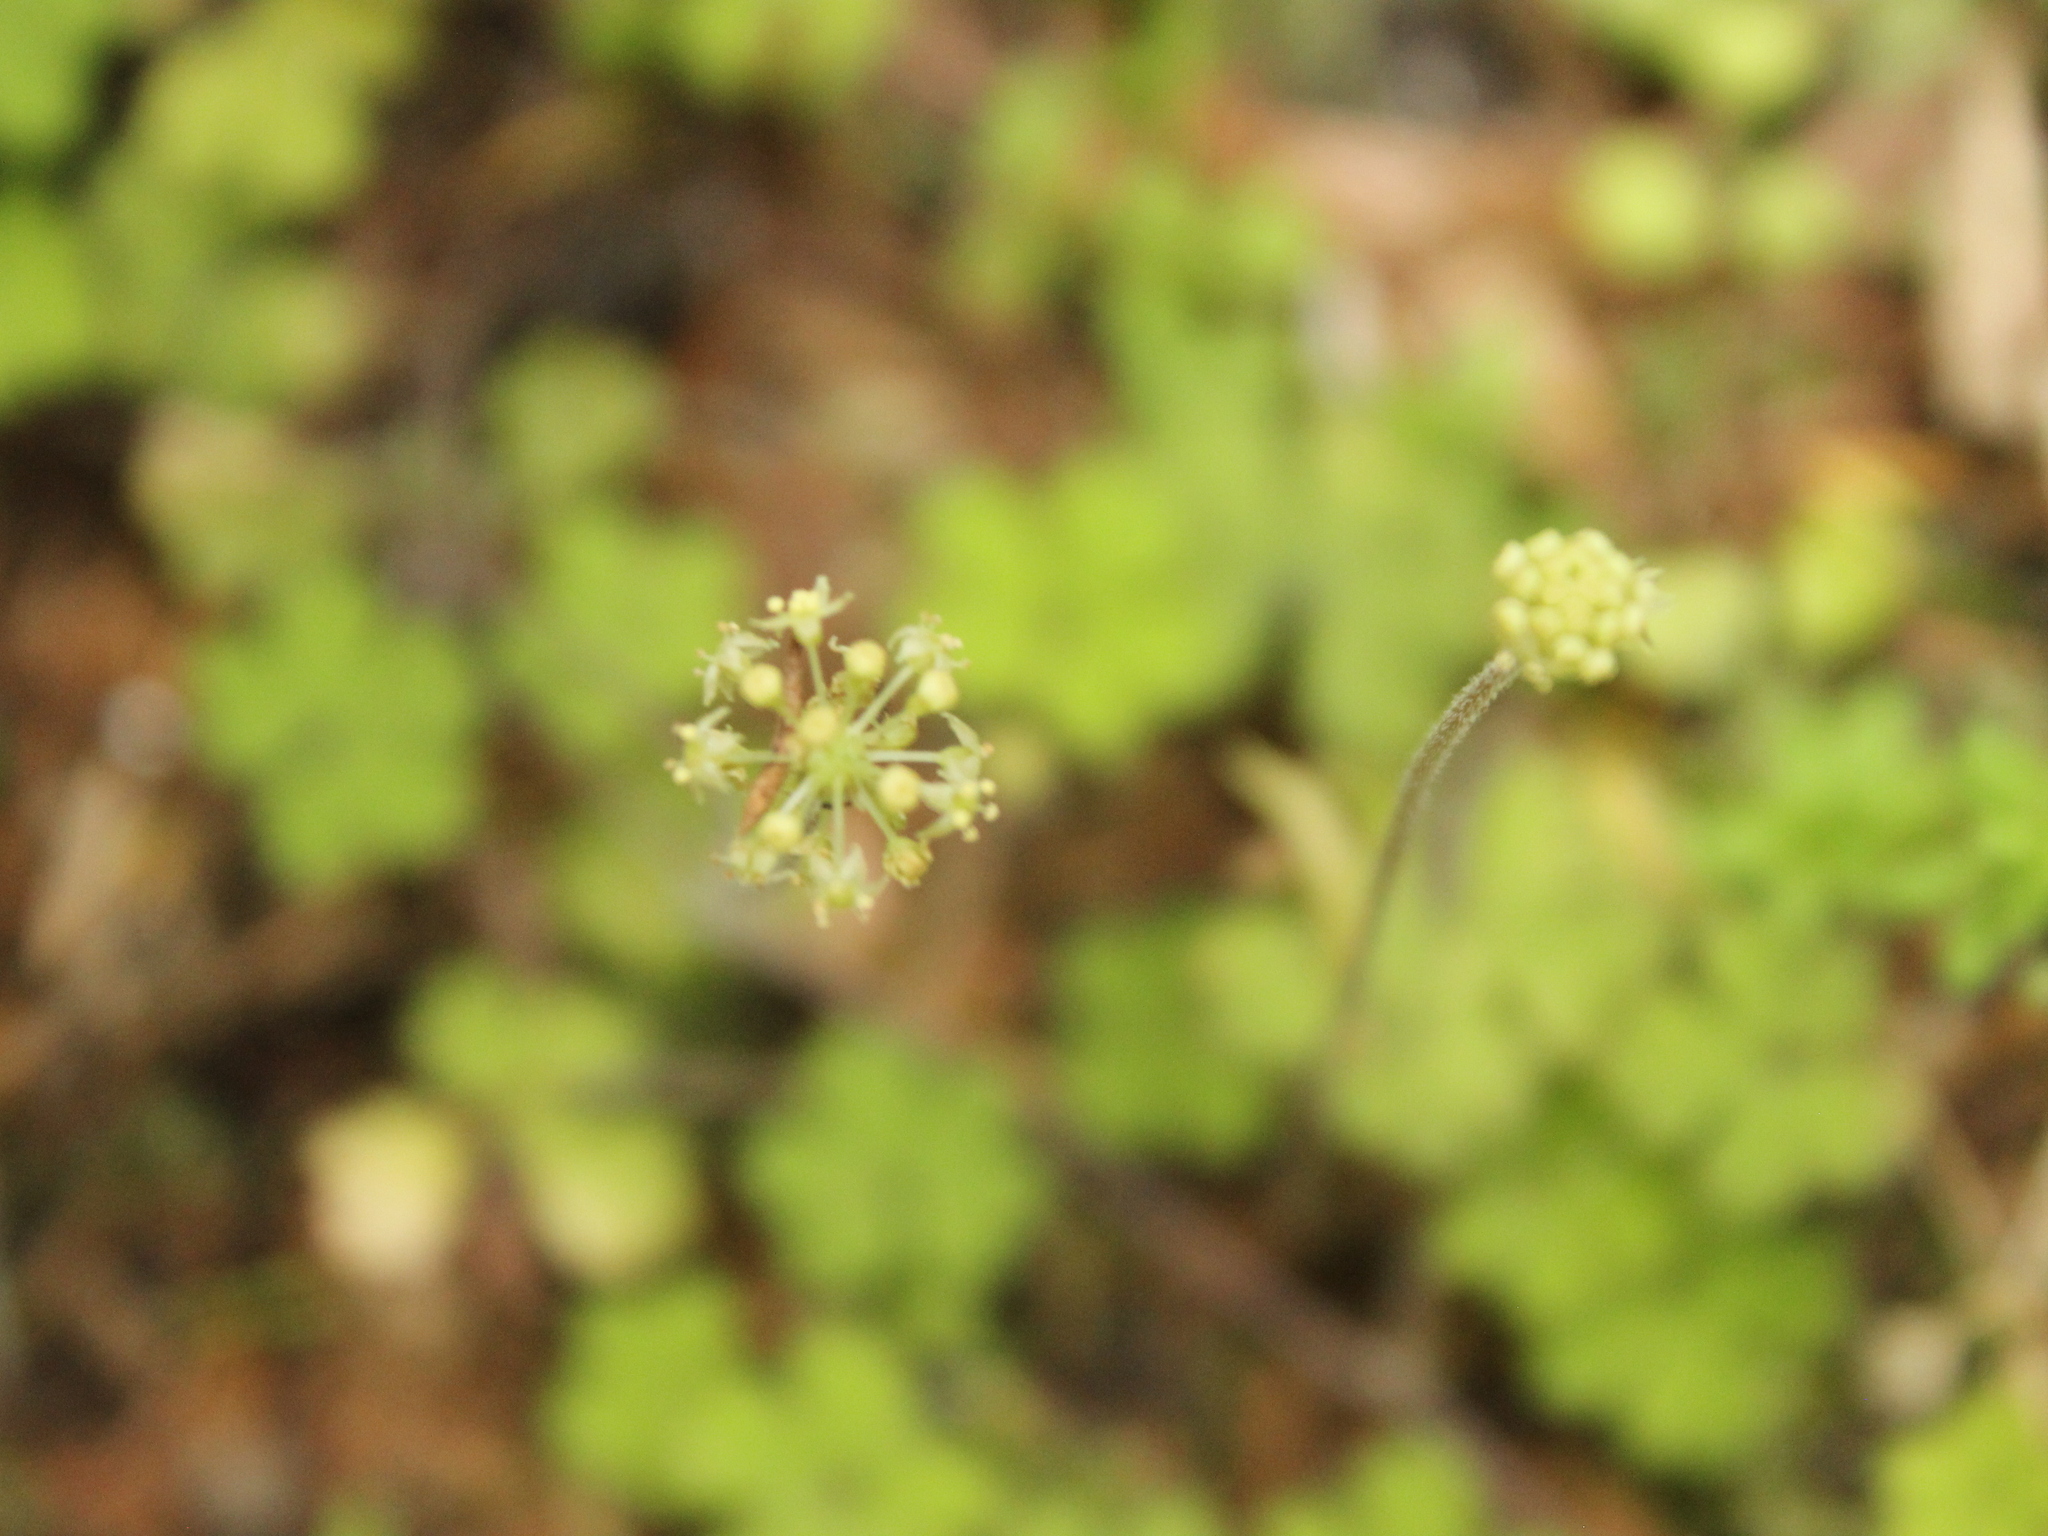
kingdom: Plantae
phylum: Tracheophyta
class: Magnoliopsida
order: Apiales
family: Araliaceae
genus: Hydrocotyle
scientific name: Hydrocotyle elongata
